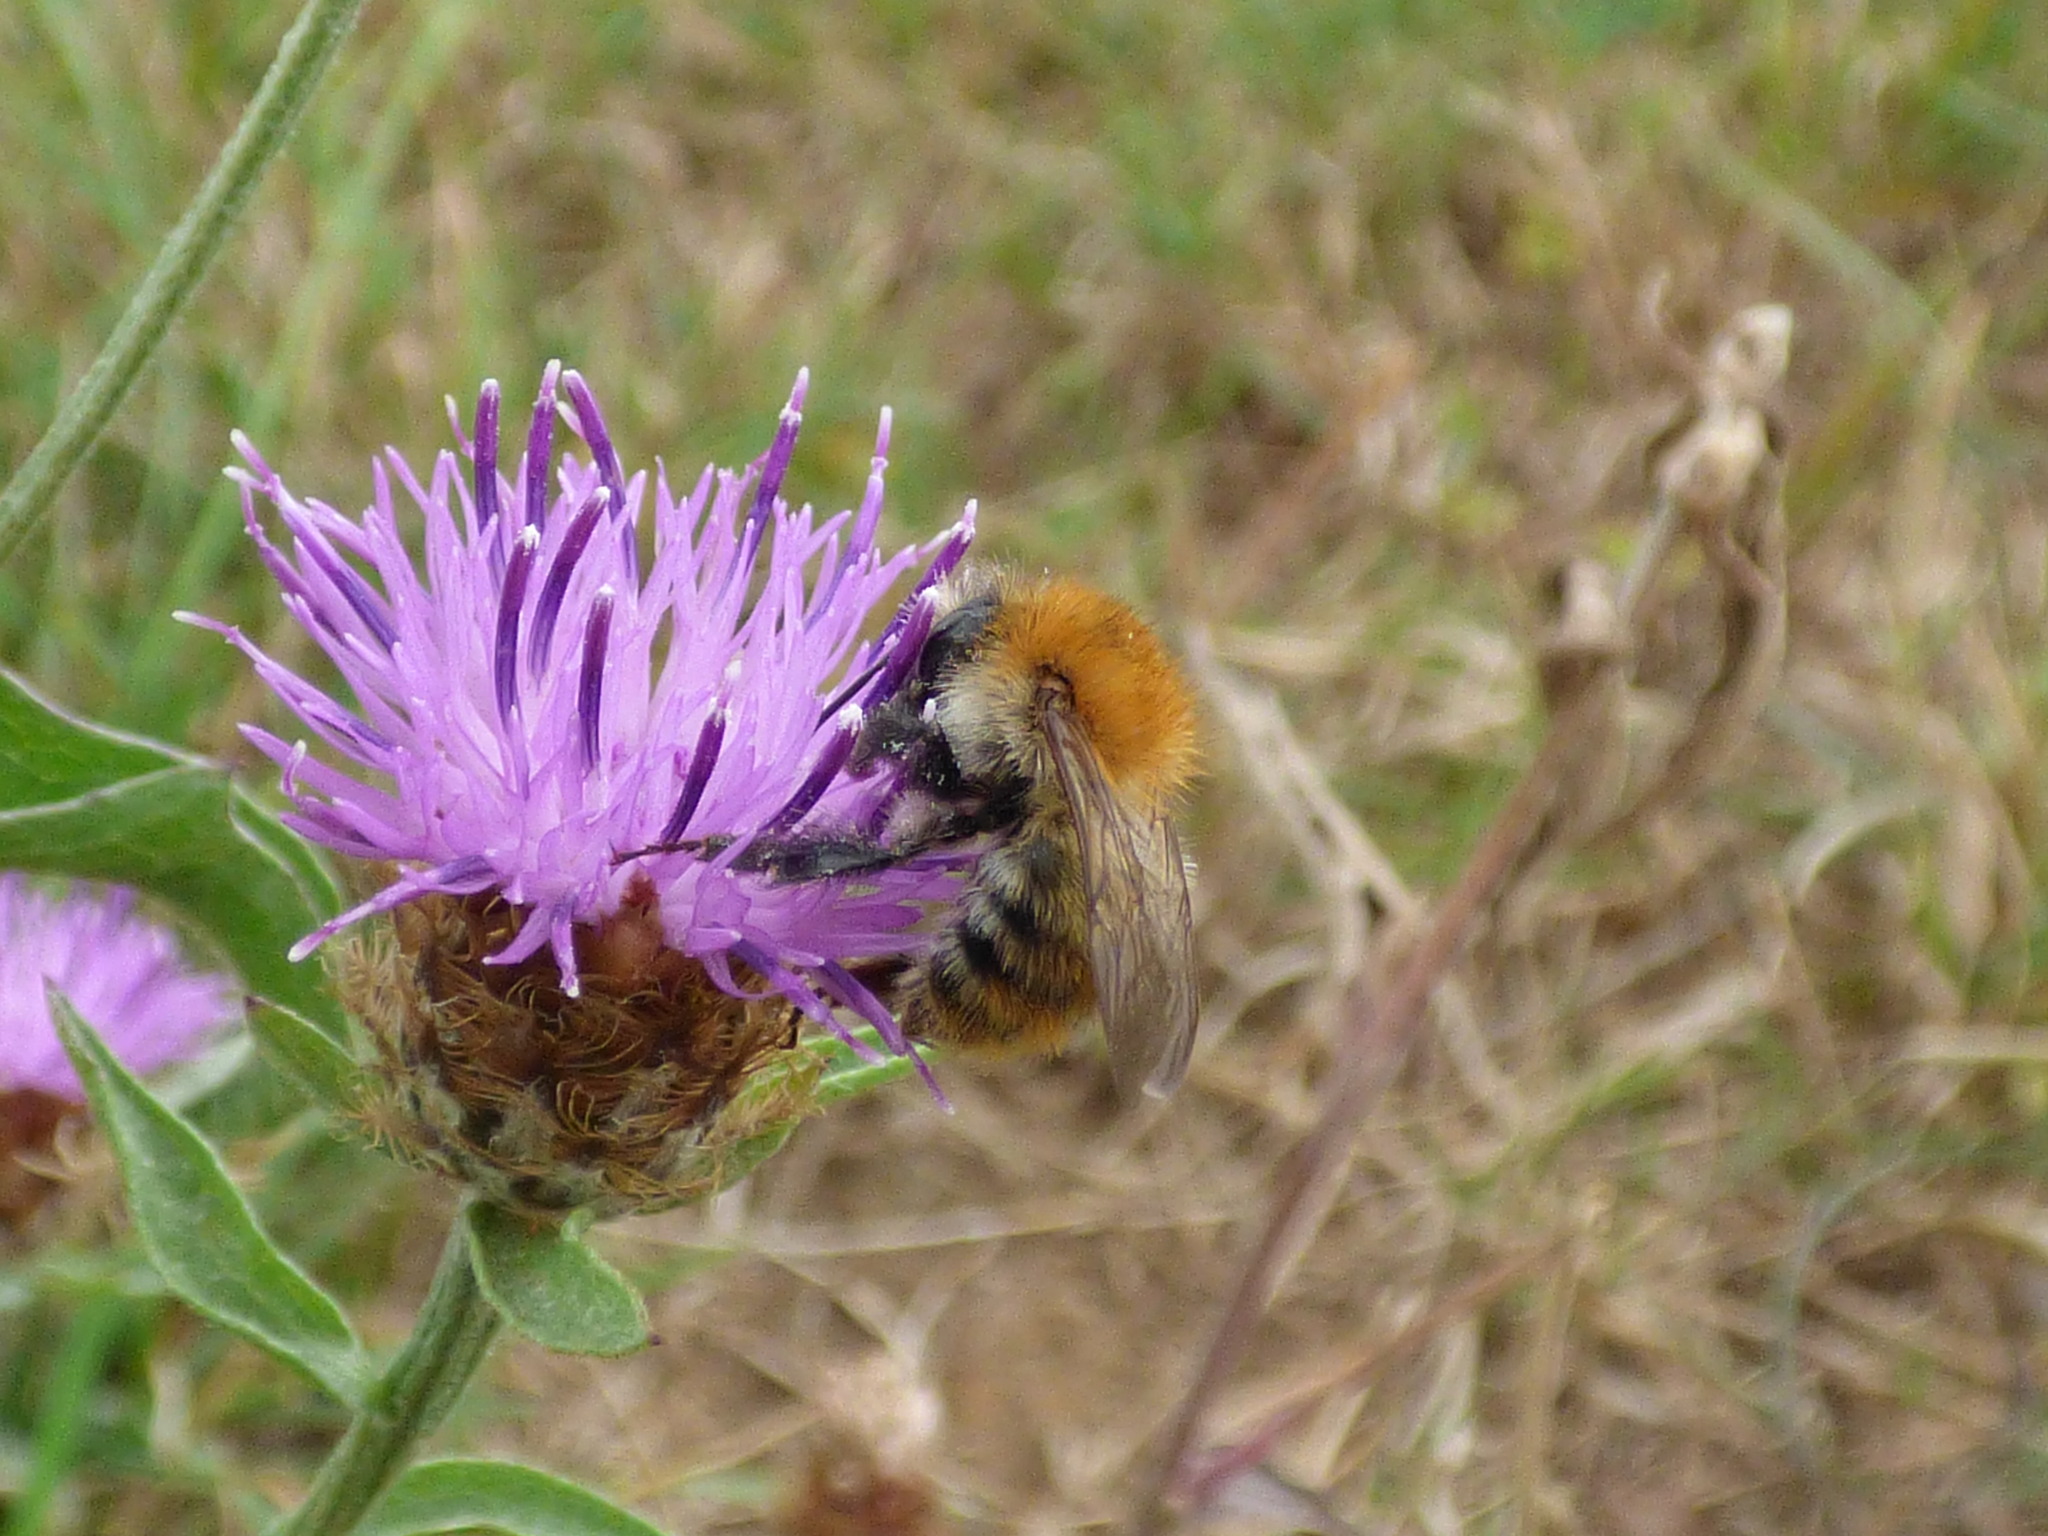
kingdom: Animalia
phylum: Arthropoda
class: Insecta
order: Hymenoptera
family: Apidae
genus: Bombus
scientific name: Bombus pascuorum
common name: Common carder bee
